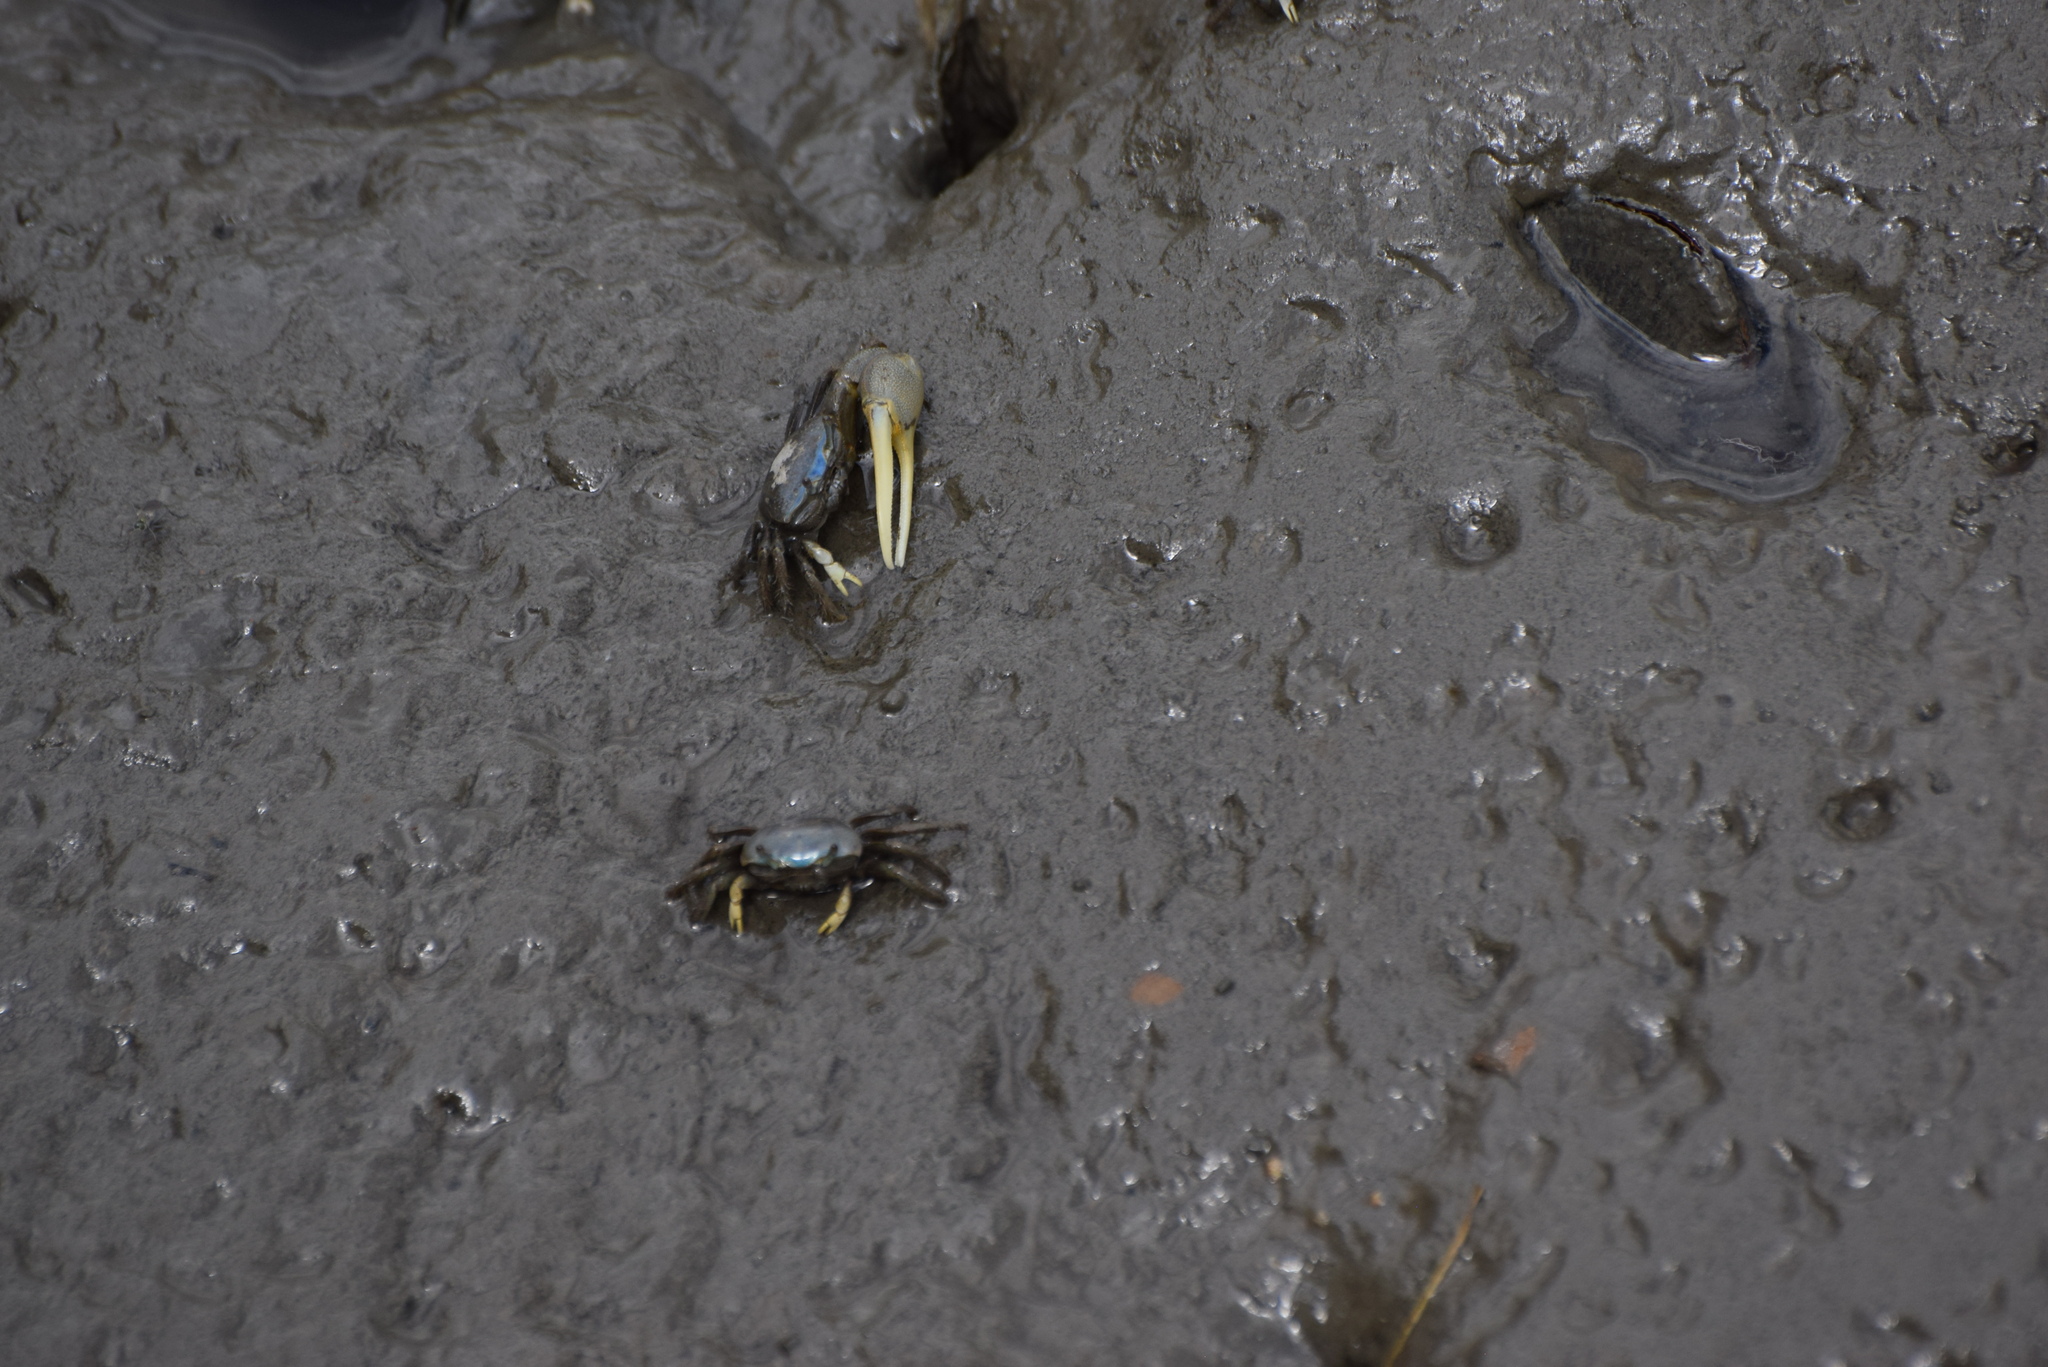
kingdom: Animalia
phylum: Arthropoda
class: Malacostraca
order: Decapoda
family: Ocypodidae
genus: Minuca
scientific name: Minuca pugnax
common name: Mud fiddler crab
